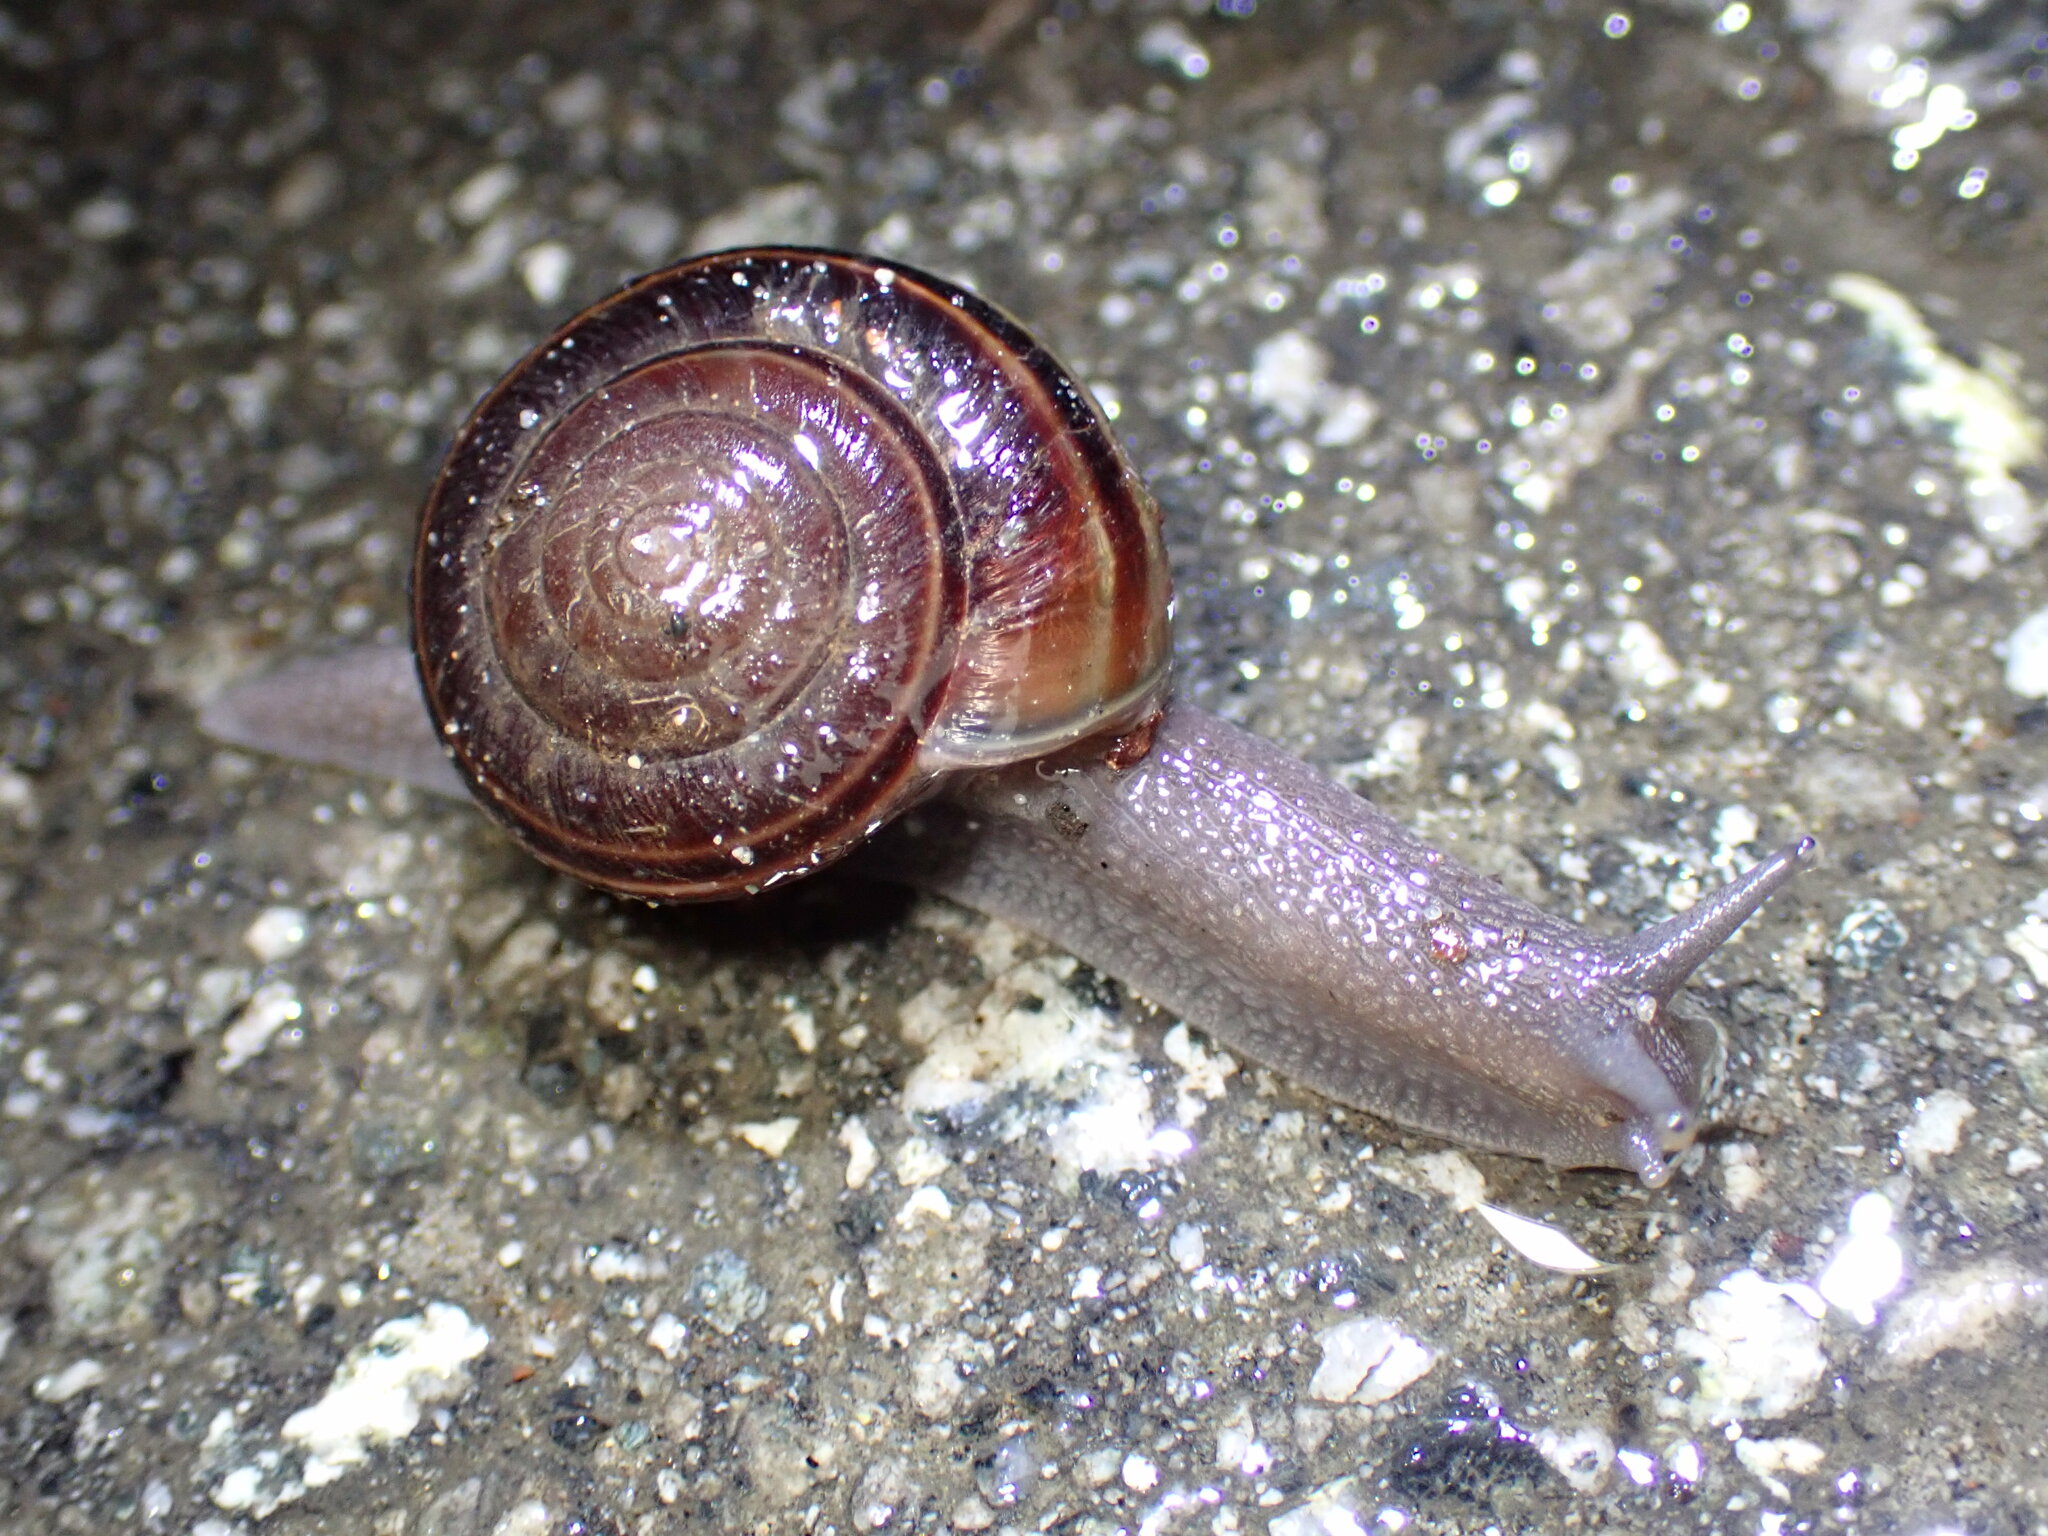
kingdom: Animalia
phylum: Mollusca
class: Gastropoda
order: Stylommatophora
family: Xanthonychidae
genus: Helminthoglypta
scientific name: Helminthoglypta sequoicola
